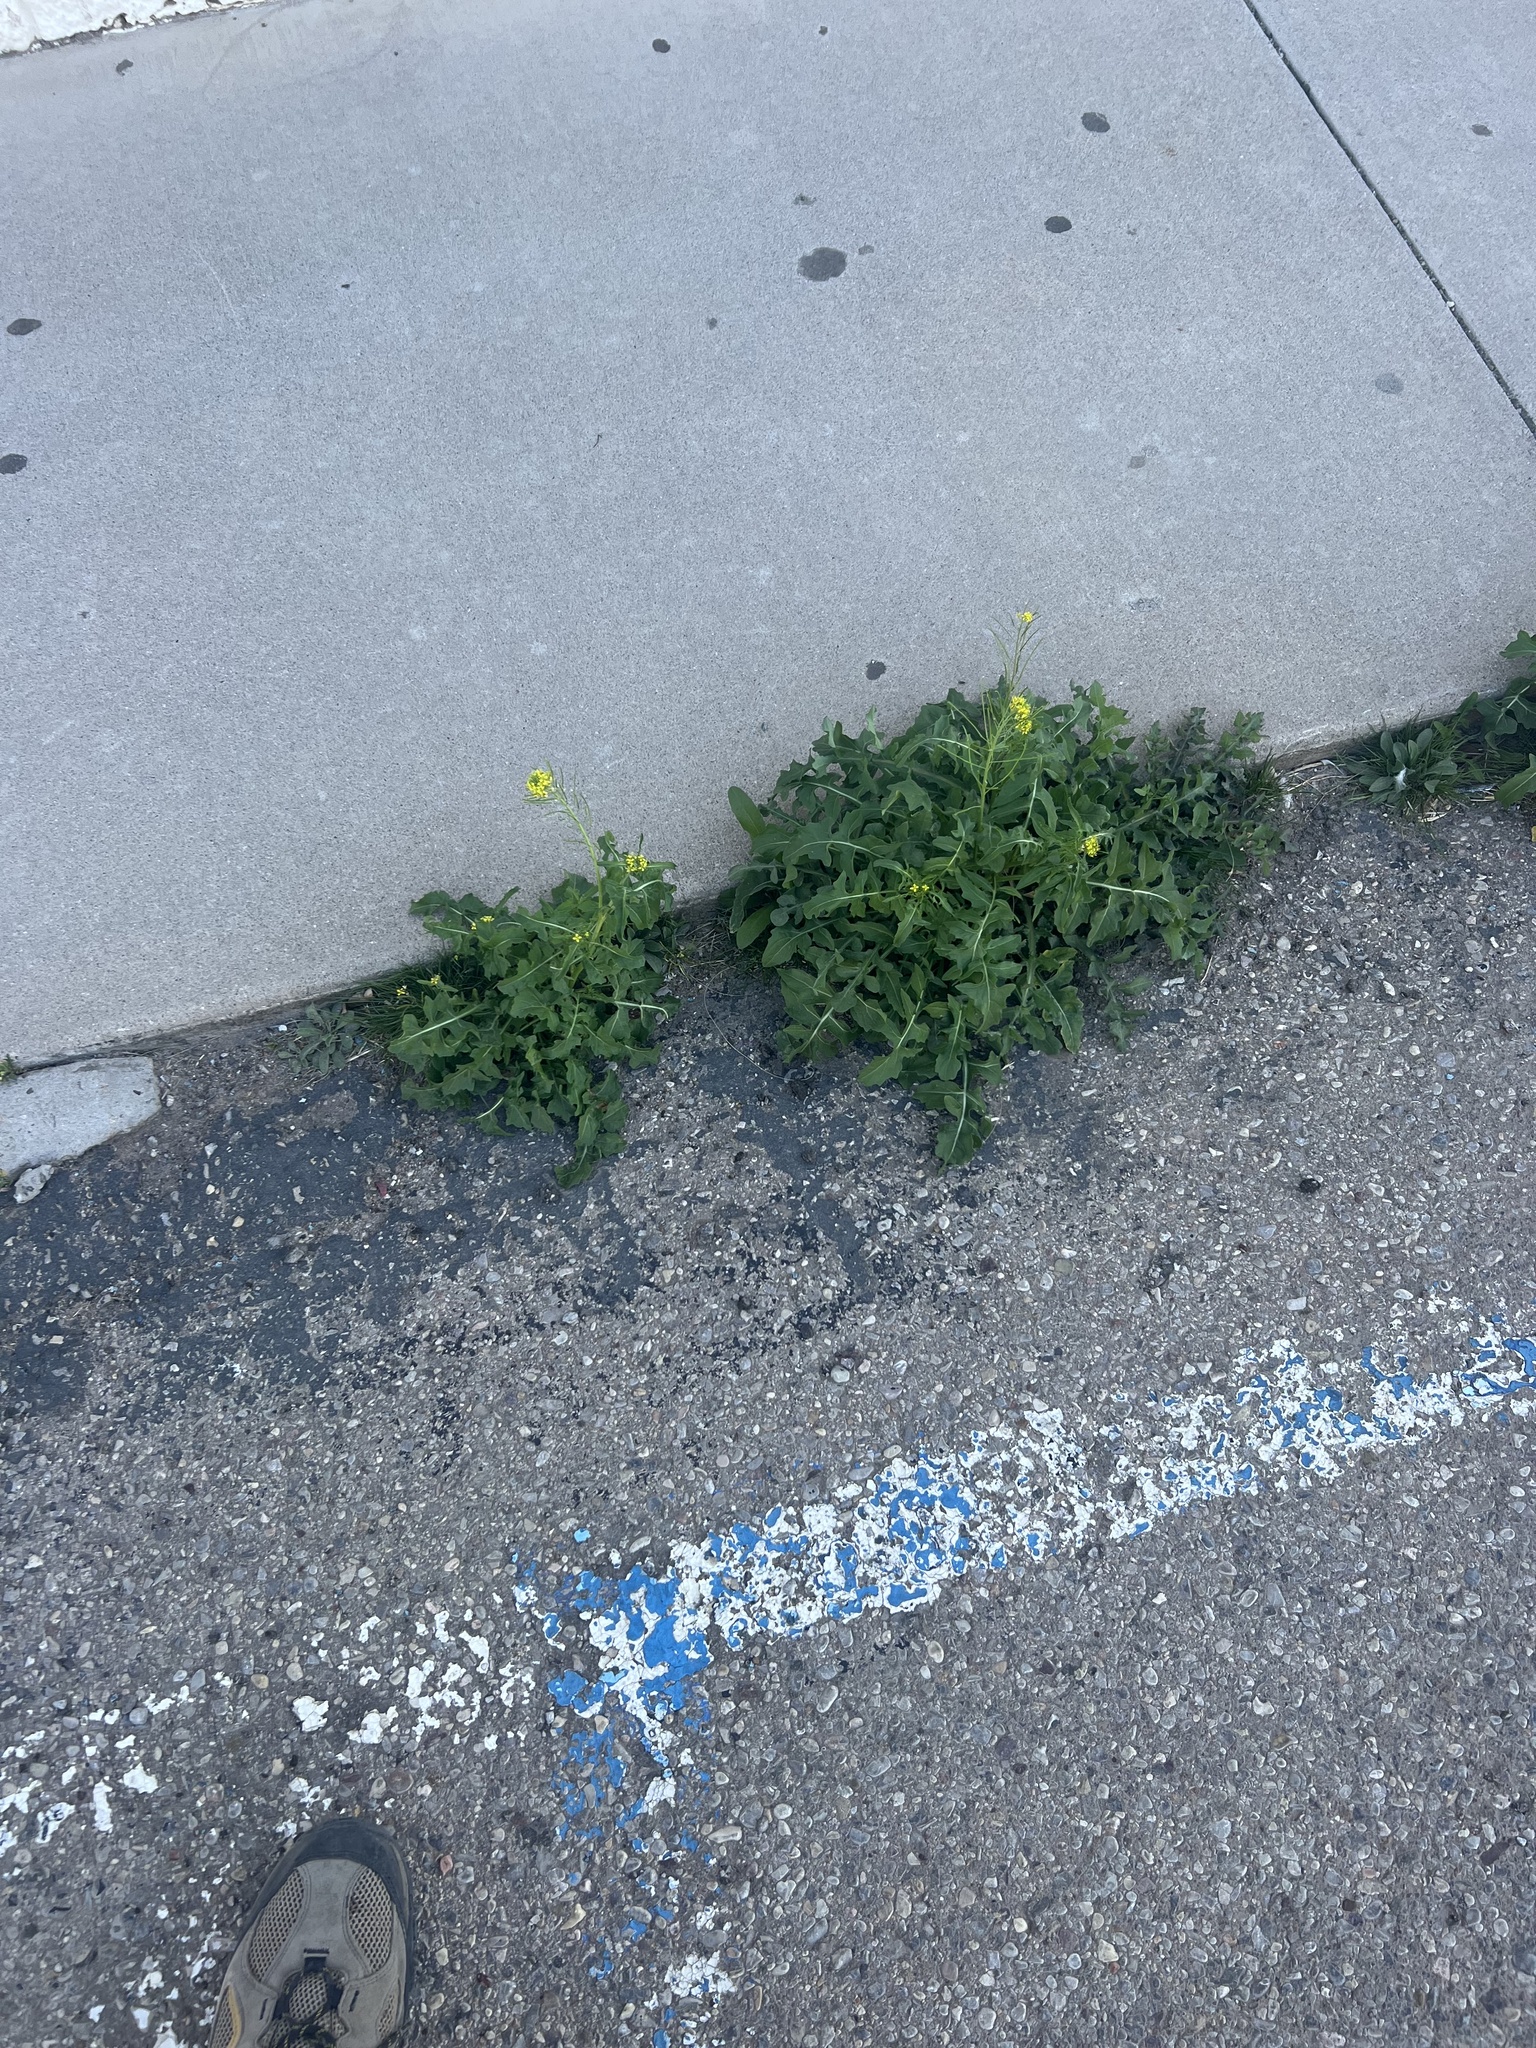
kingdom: Plantae
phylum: Tracheophyta
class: Magnoliopsida
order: Brassicales
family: Brassicaceae
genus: Sisymbrium
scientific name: Sisymbrium irio
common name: London rocket
